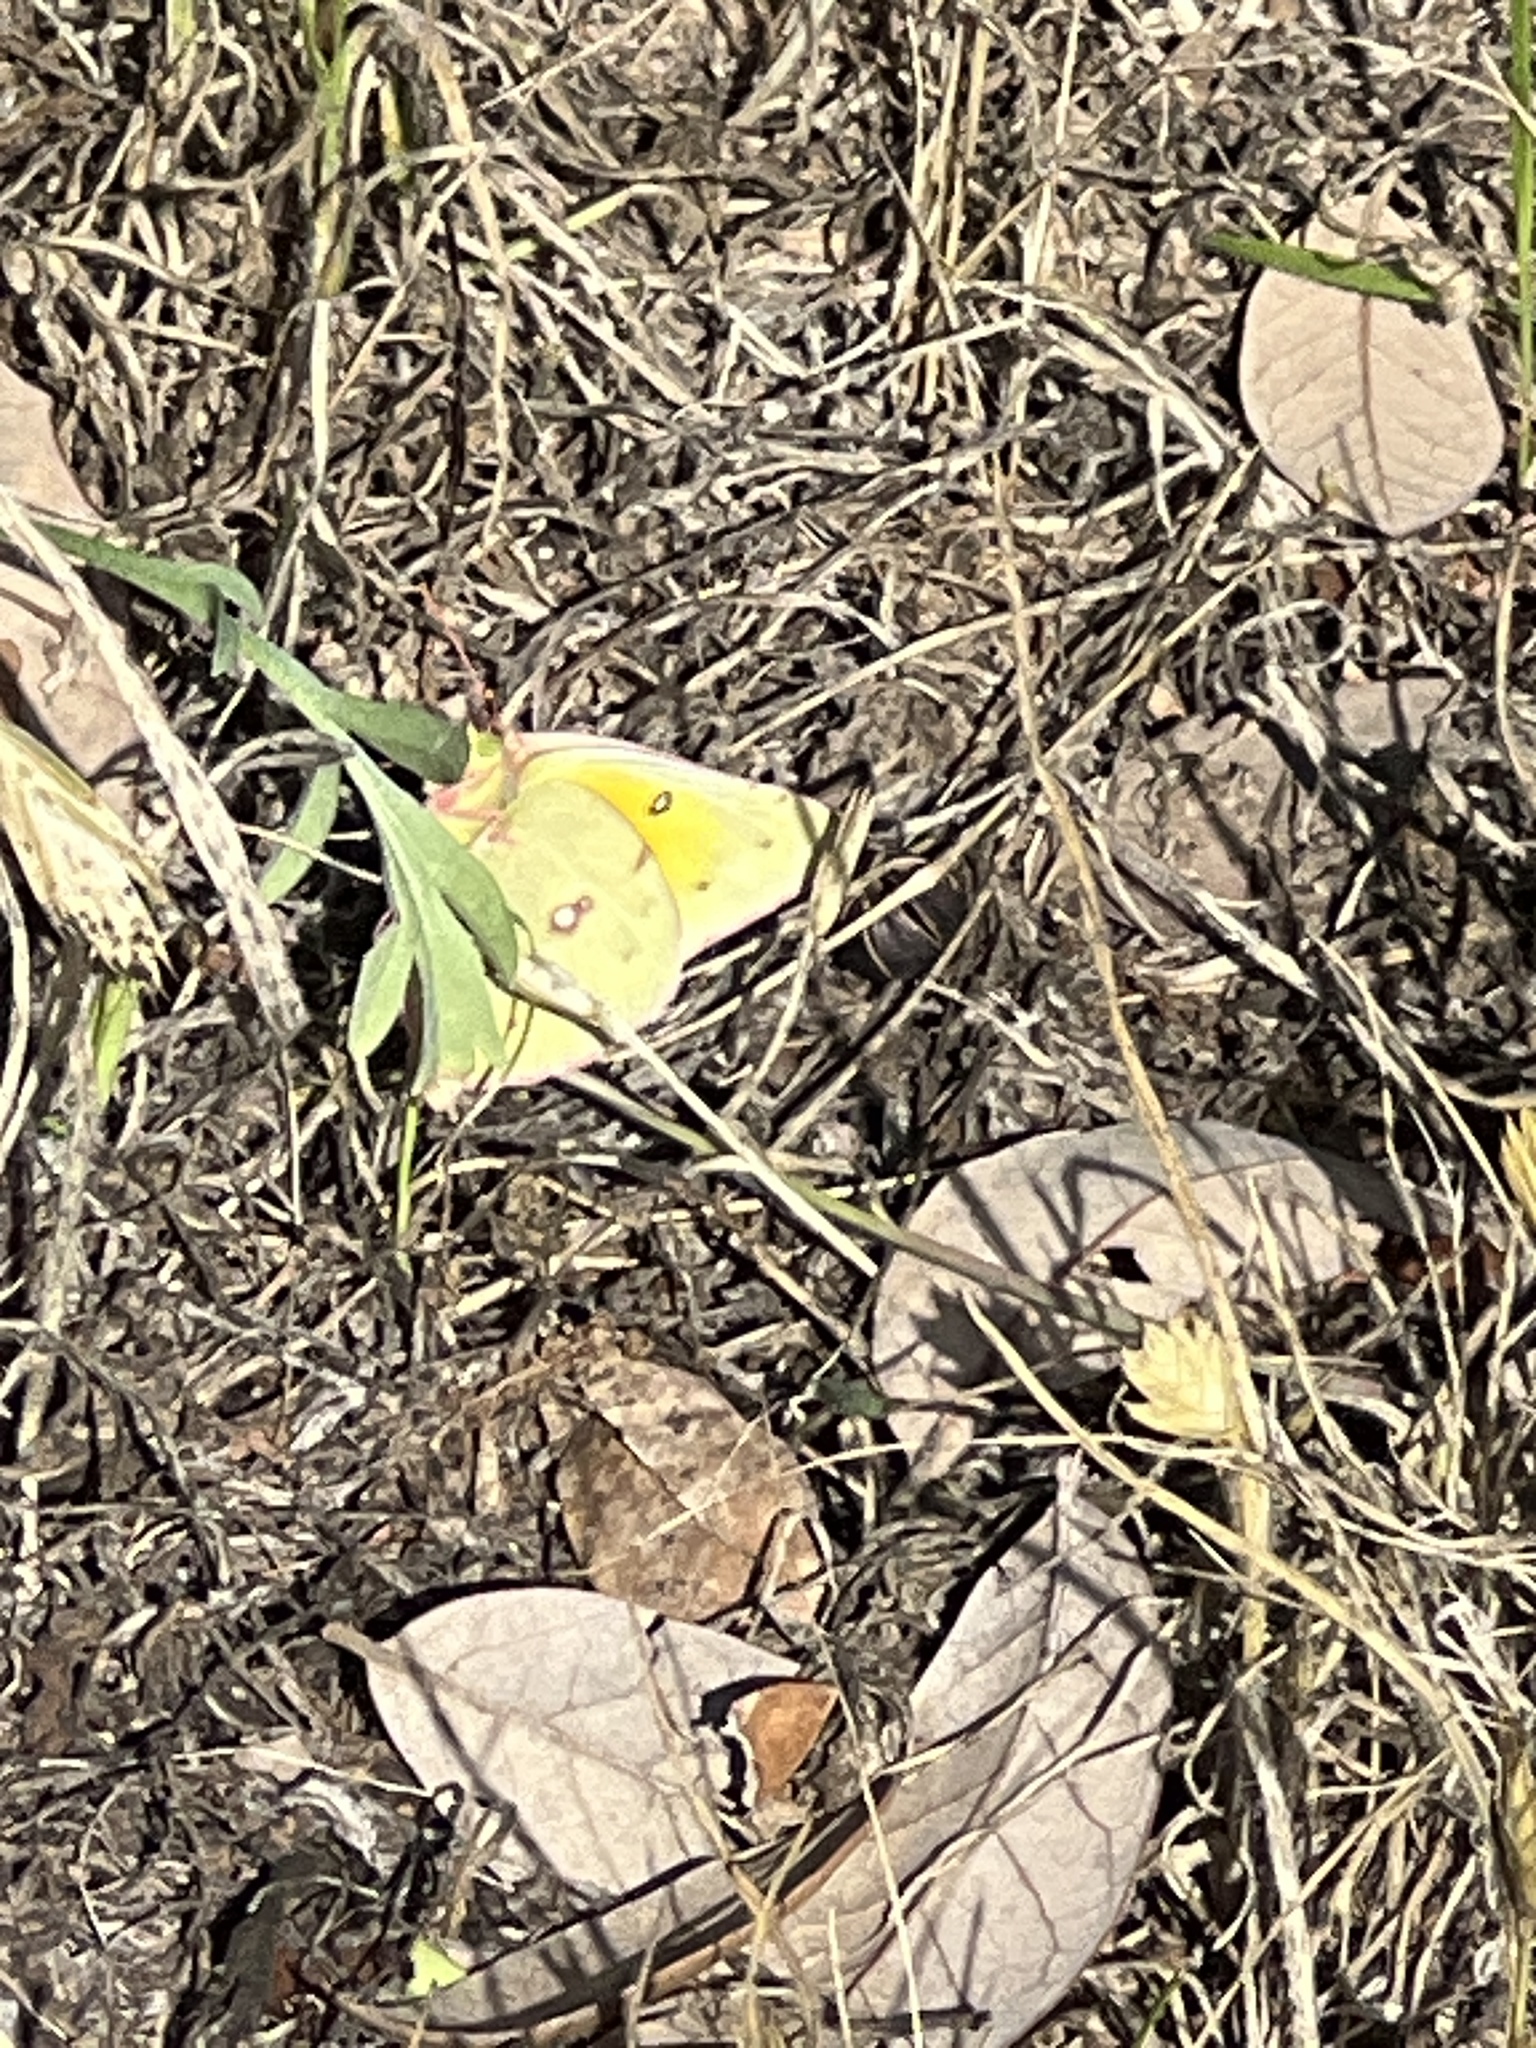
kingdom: Animalia
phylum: Arthropoda
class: Insecta
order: Lepidoptera
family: Pieridae
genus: Colias
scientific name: Colias eurytheme
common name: Alfalfa butterfly
